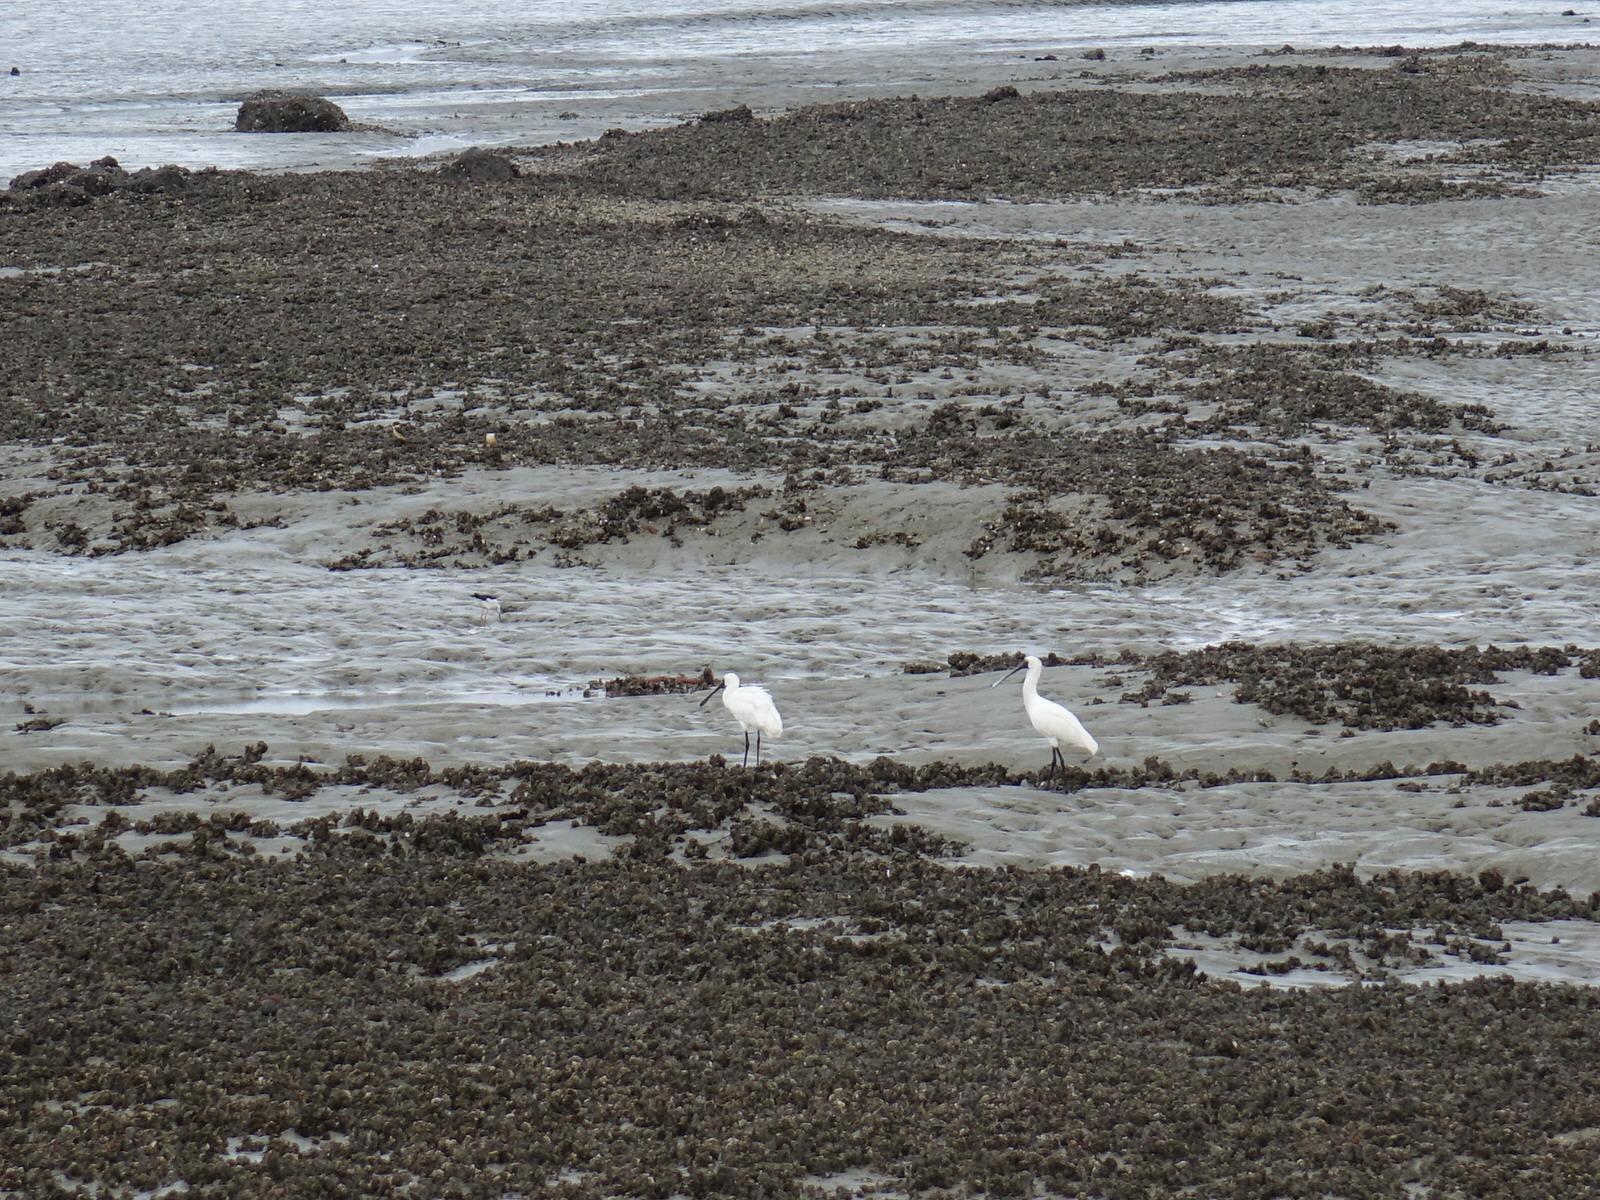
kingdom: Animalia
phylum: Chordata
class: Aves
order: Pelecaniformes
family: Threskiornithidae
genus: Platalea
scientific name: Platalea regia
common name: Royal spoonbill
